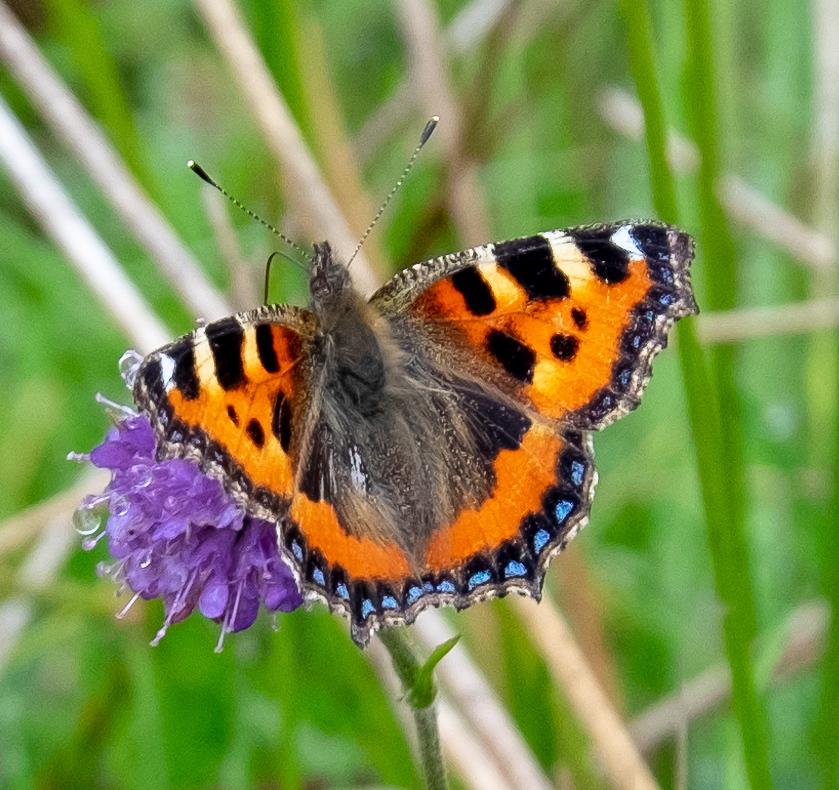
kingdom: Animalia
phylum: Arthropoda
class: Insecta
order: Lepidoptera
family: Nymphalidae
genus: Aglais
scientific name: Aglais urticae
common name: Small tortoiseshell
